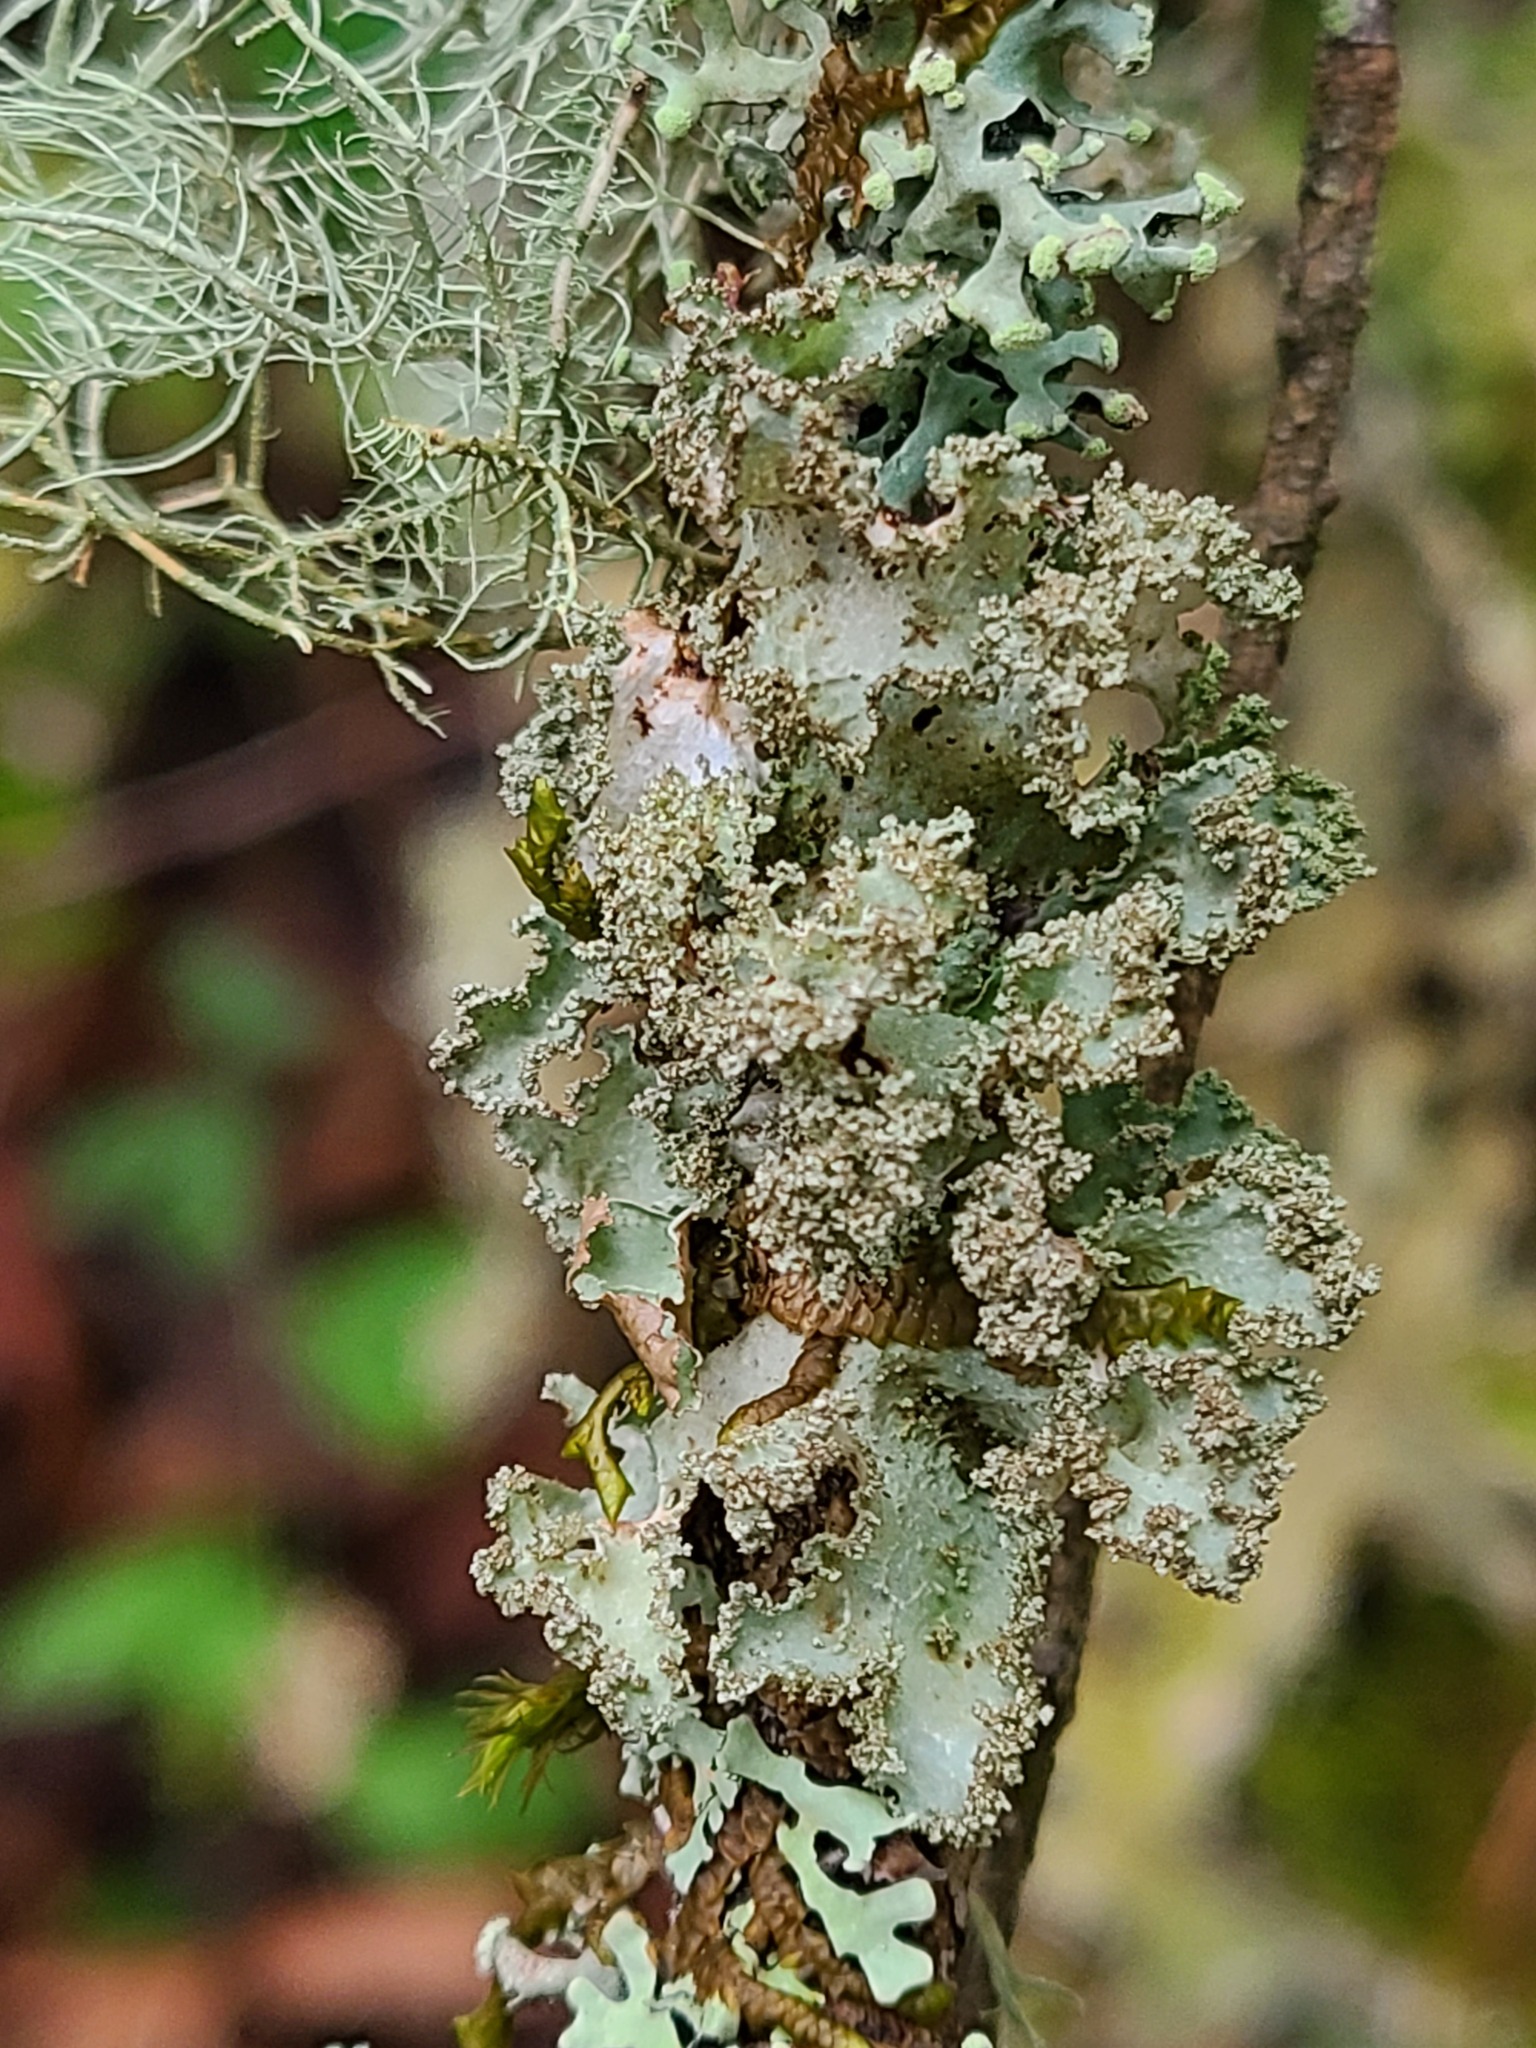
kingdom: Fungi
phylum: Ascomycota
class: Lecanoromycetes
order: Lecanorales
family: Parmeliaceae
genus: Platismatia
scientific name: Platismatia glauca
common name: Varied rag lichen
